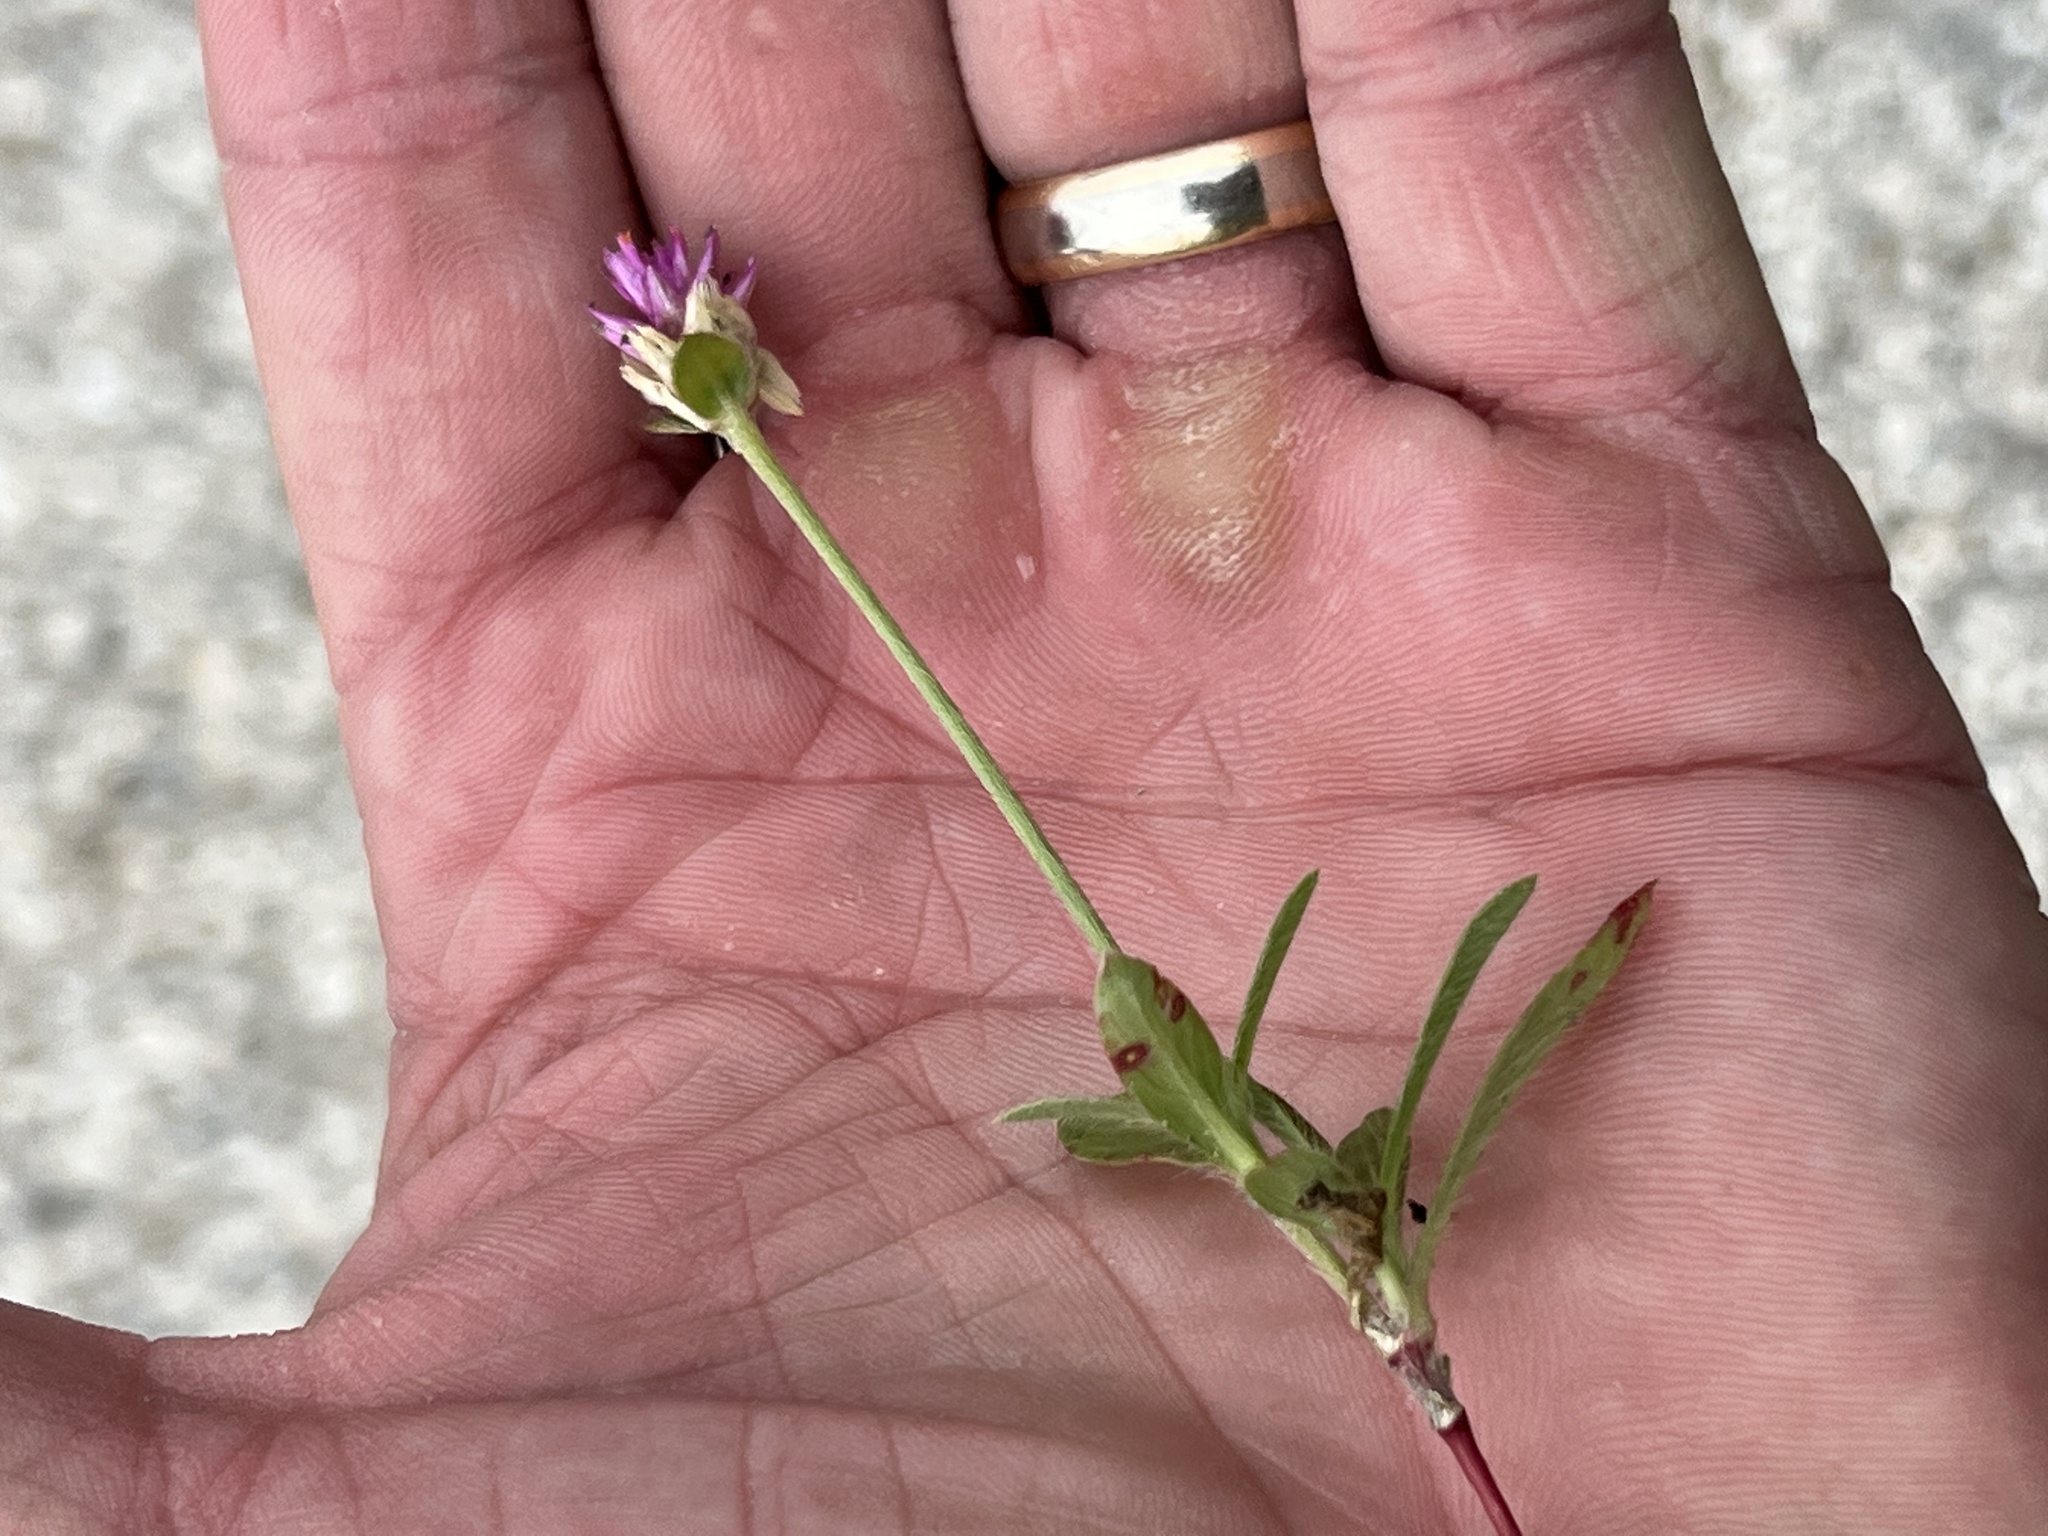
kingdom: Plantae
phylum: Tracheophyta
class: Magnoliopsida
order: Caryophyllales
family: Amaranthaceae
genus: Gomphrena
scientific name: Gomphrena globosa
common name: Common globe amaranth
